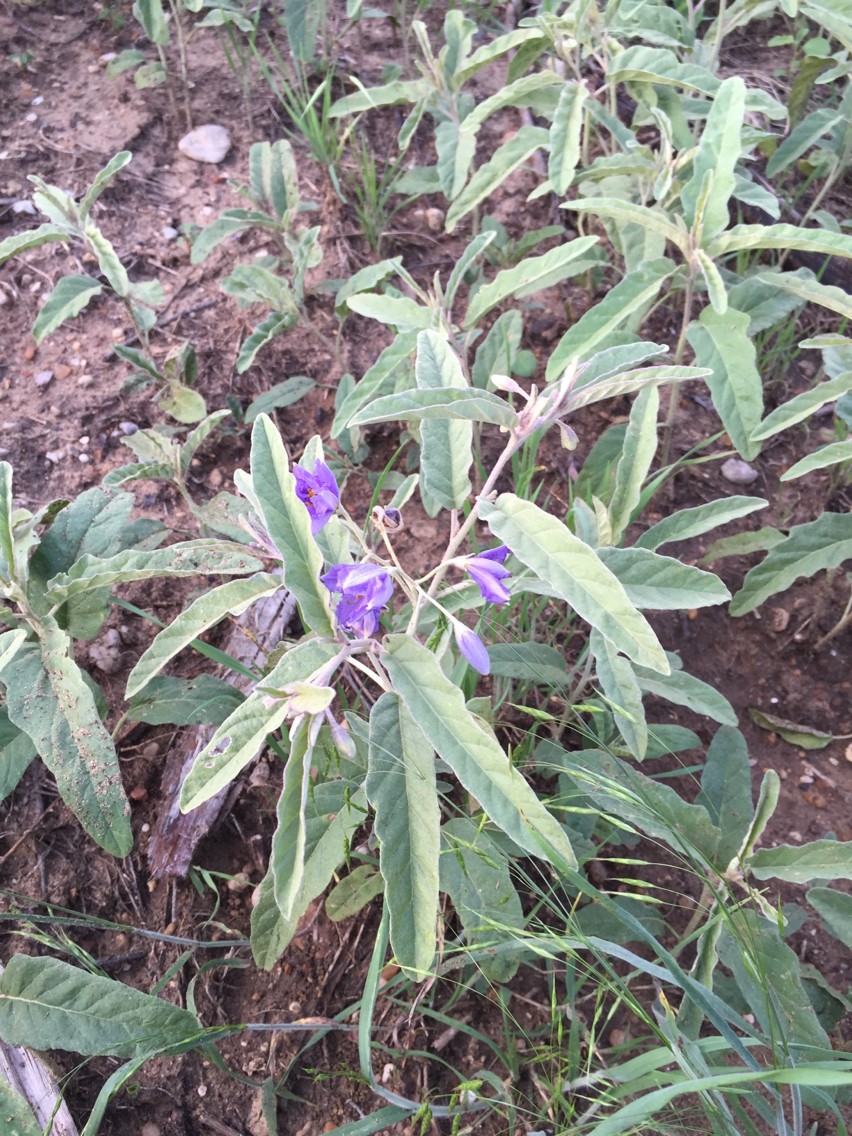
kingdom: Plantae
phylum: Tracheophyta
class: Magnoliopsida
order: Solanales
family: Solanaceae
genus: Solanum
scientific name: Solanum elaeagnifolium
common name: Silverleaf nightshade
